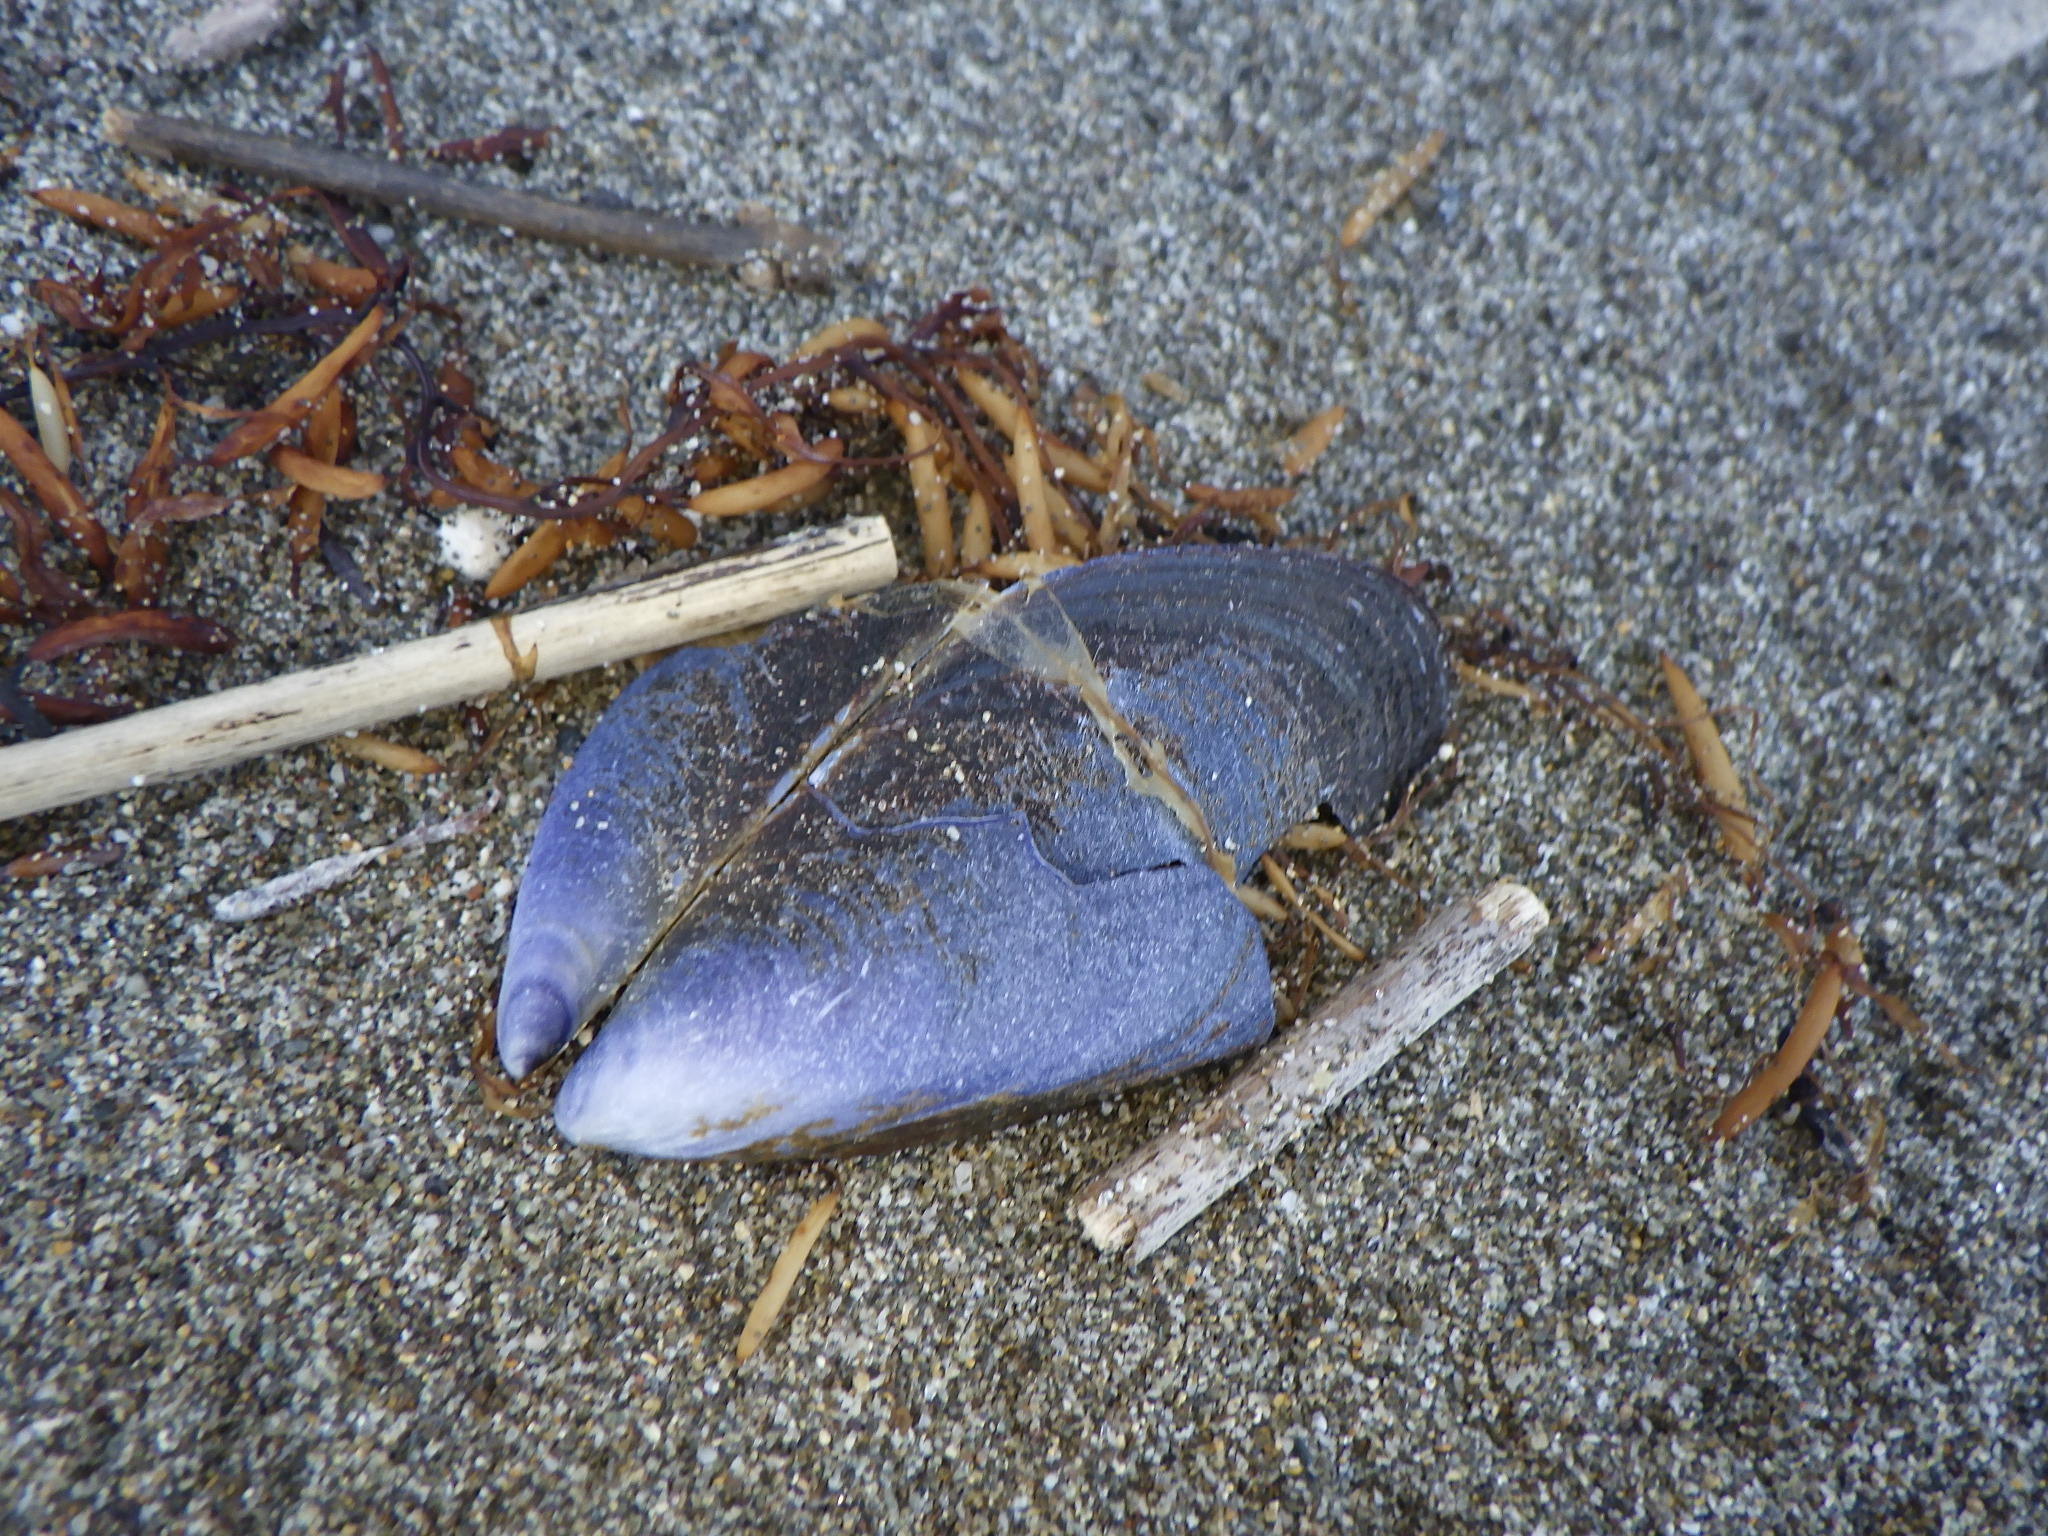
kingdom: Animalia
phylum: Mollusca
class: Bivalvia
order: Mytilida
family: Mytilidae
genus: Mytilus
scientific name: Mytilus galloprovincialis
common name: Mediterranean mussel
